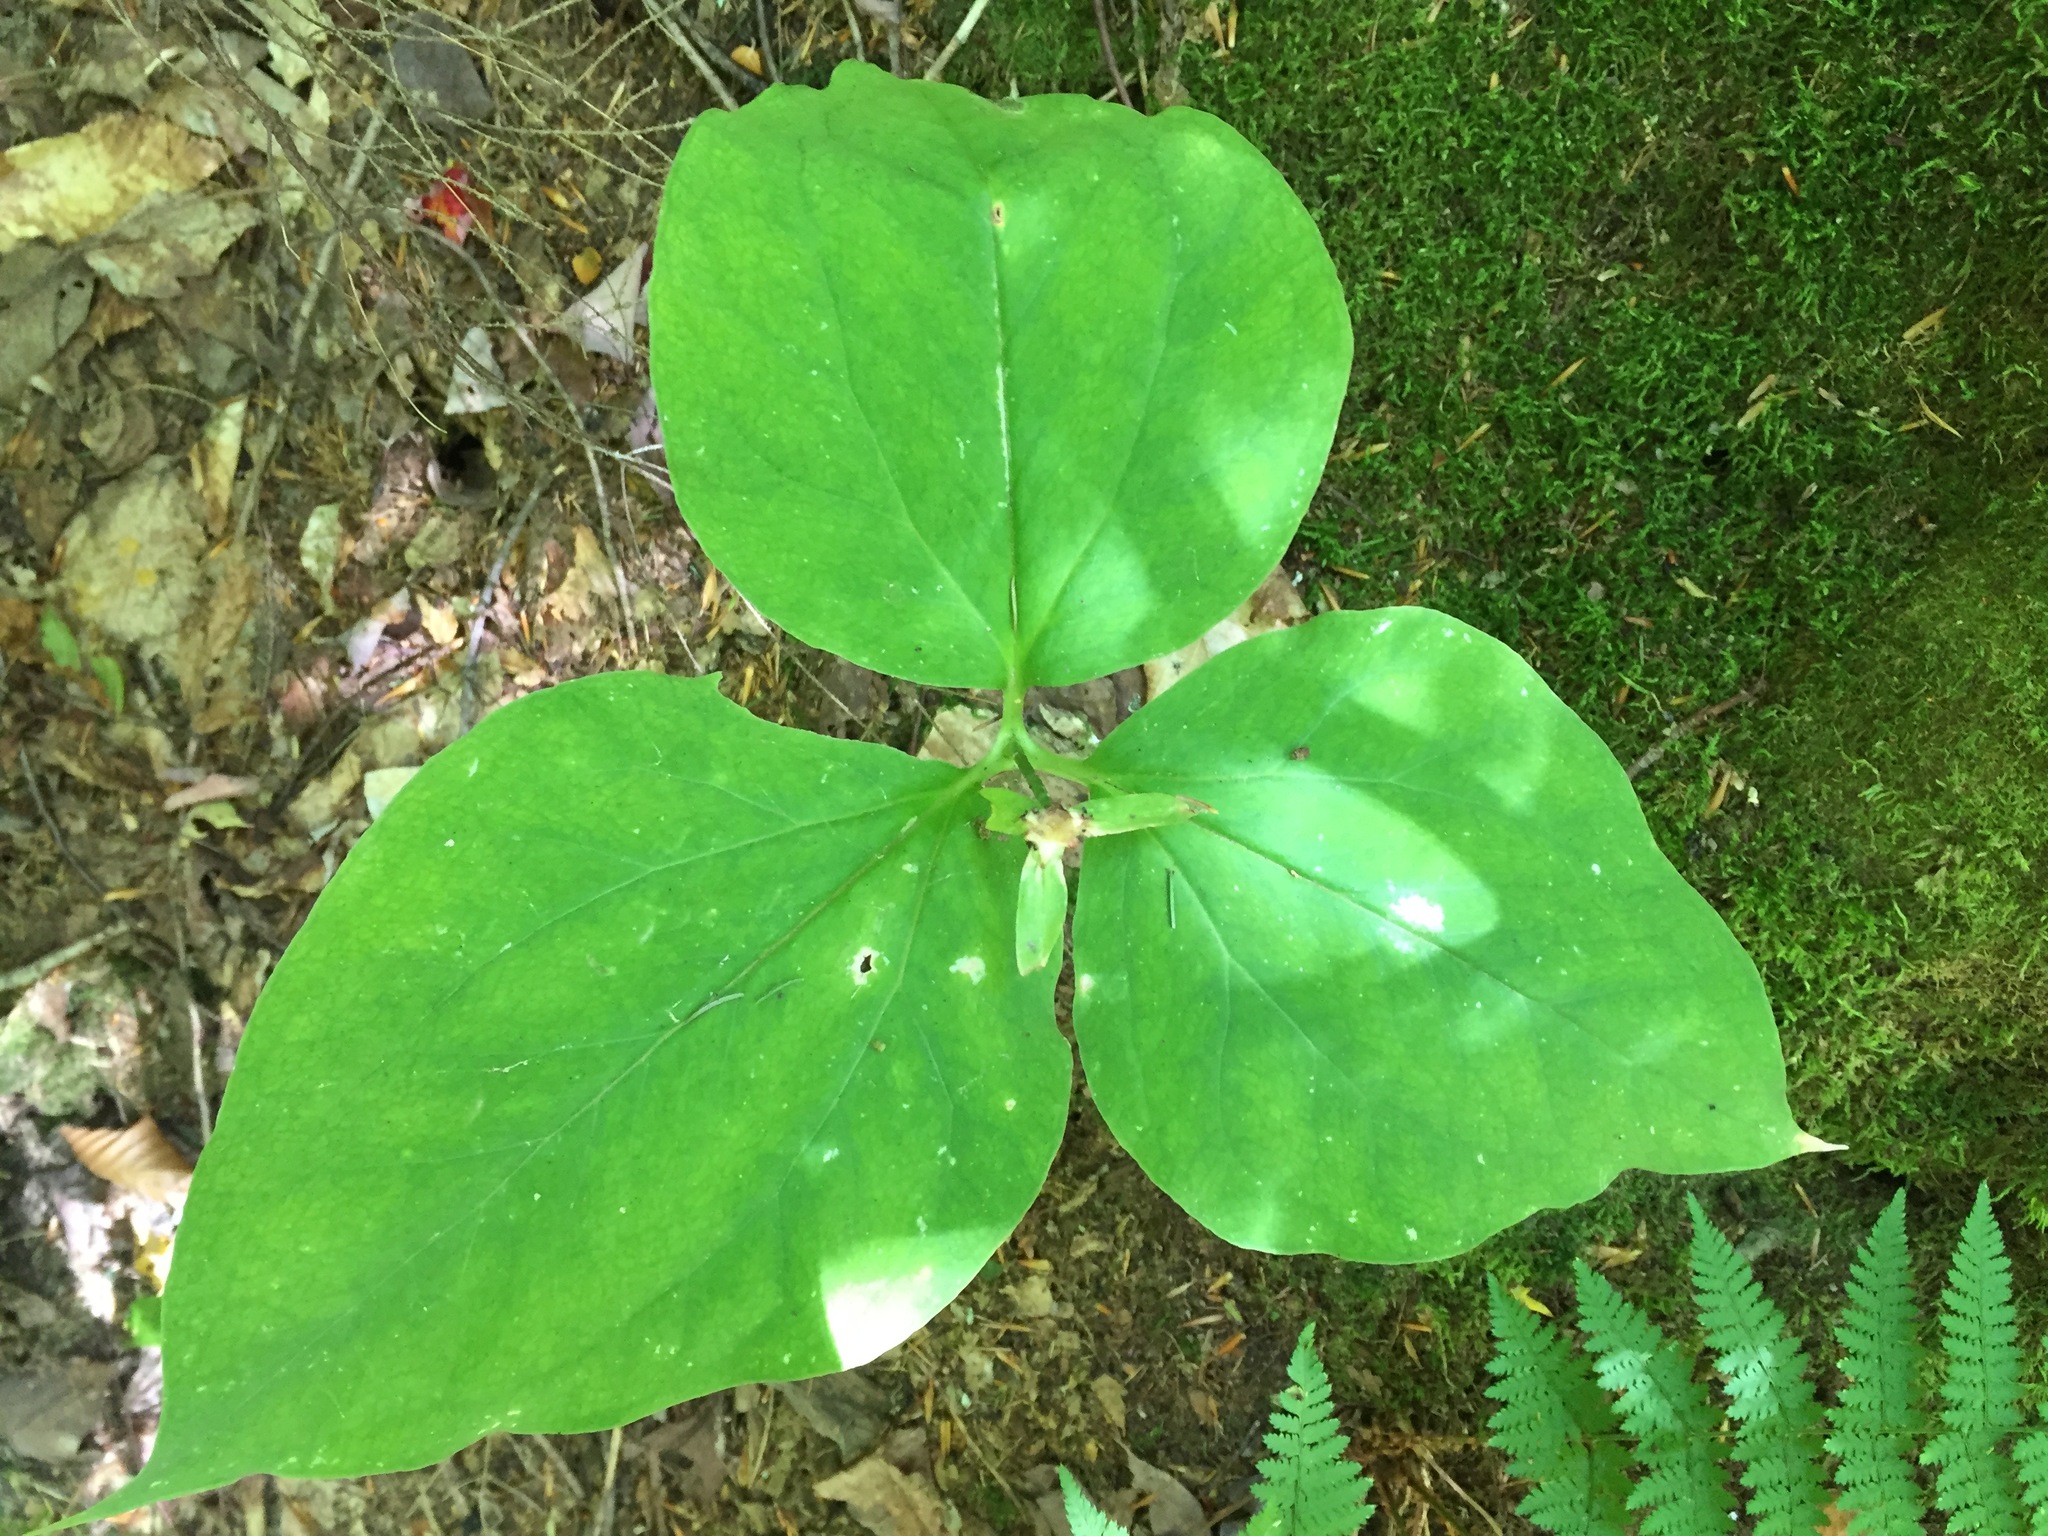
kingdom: Plantae
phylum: Tracheophyta
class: Liliopsida
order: Liliales
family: Melanthiaceae
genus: Trillium
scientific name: Trillium undulatum
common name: Paint trillium
